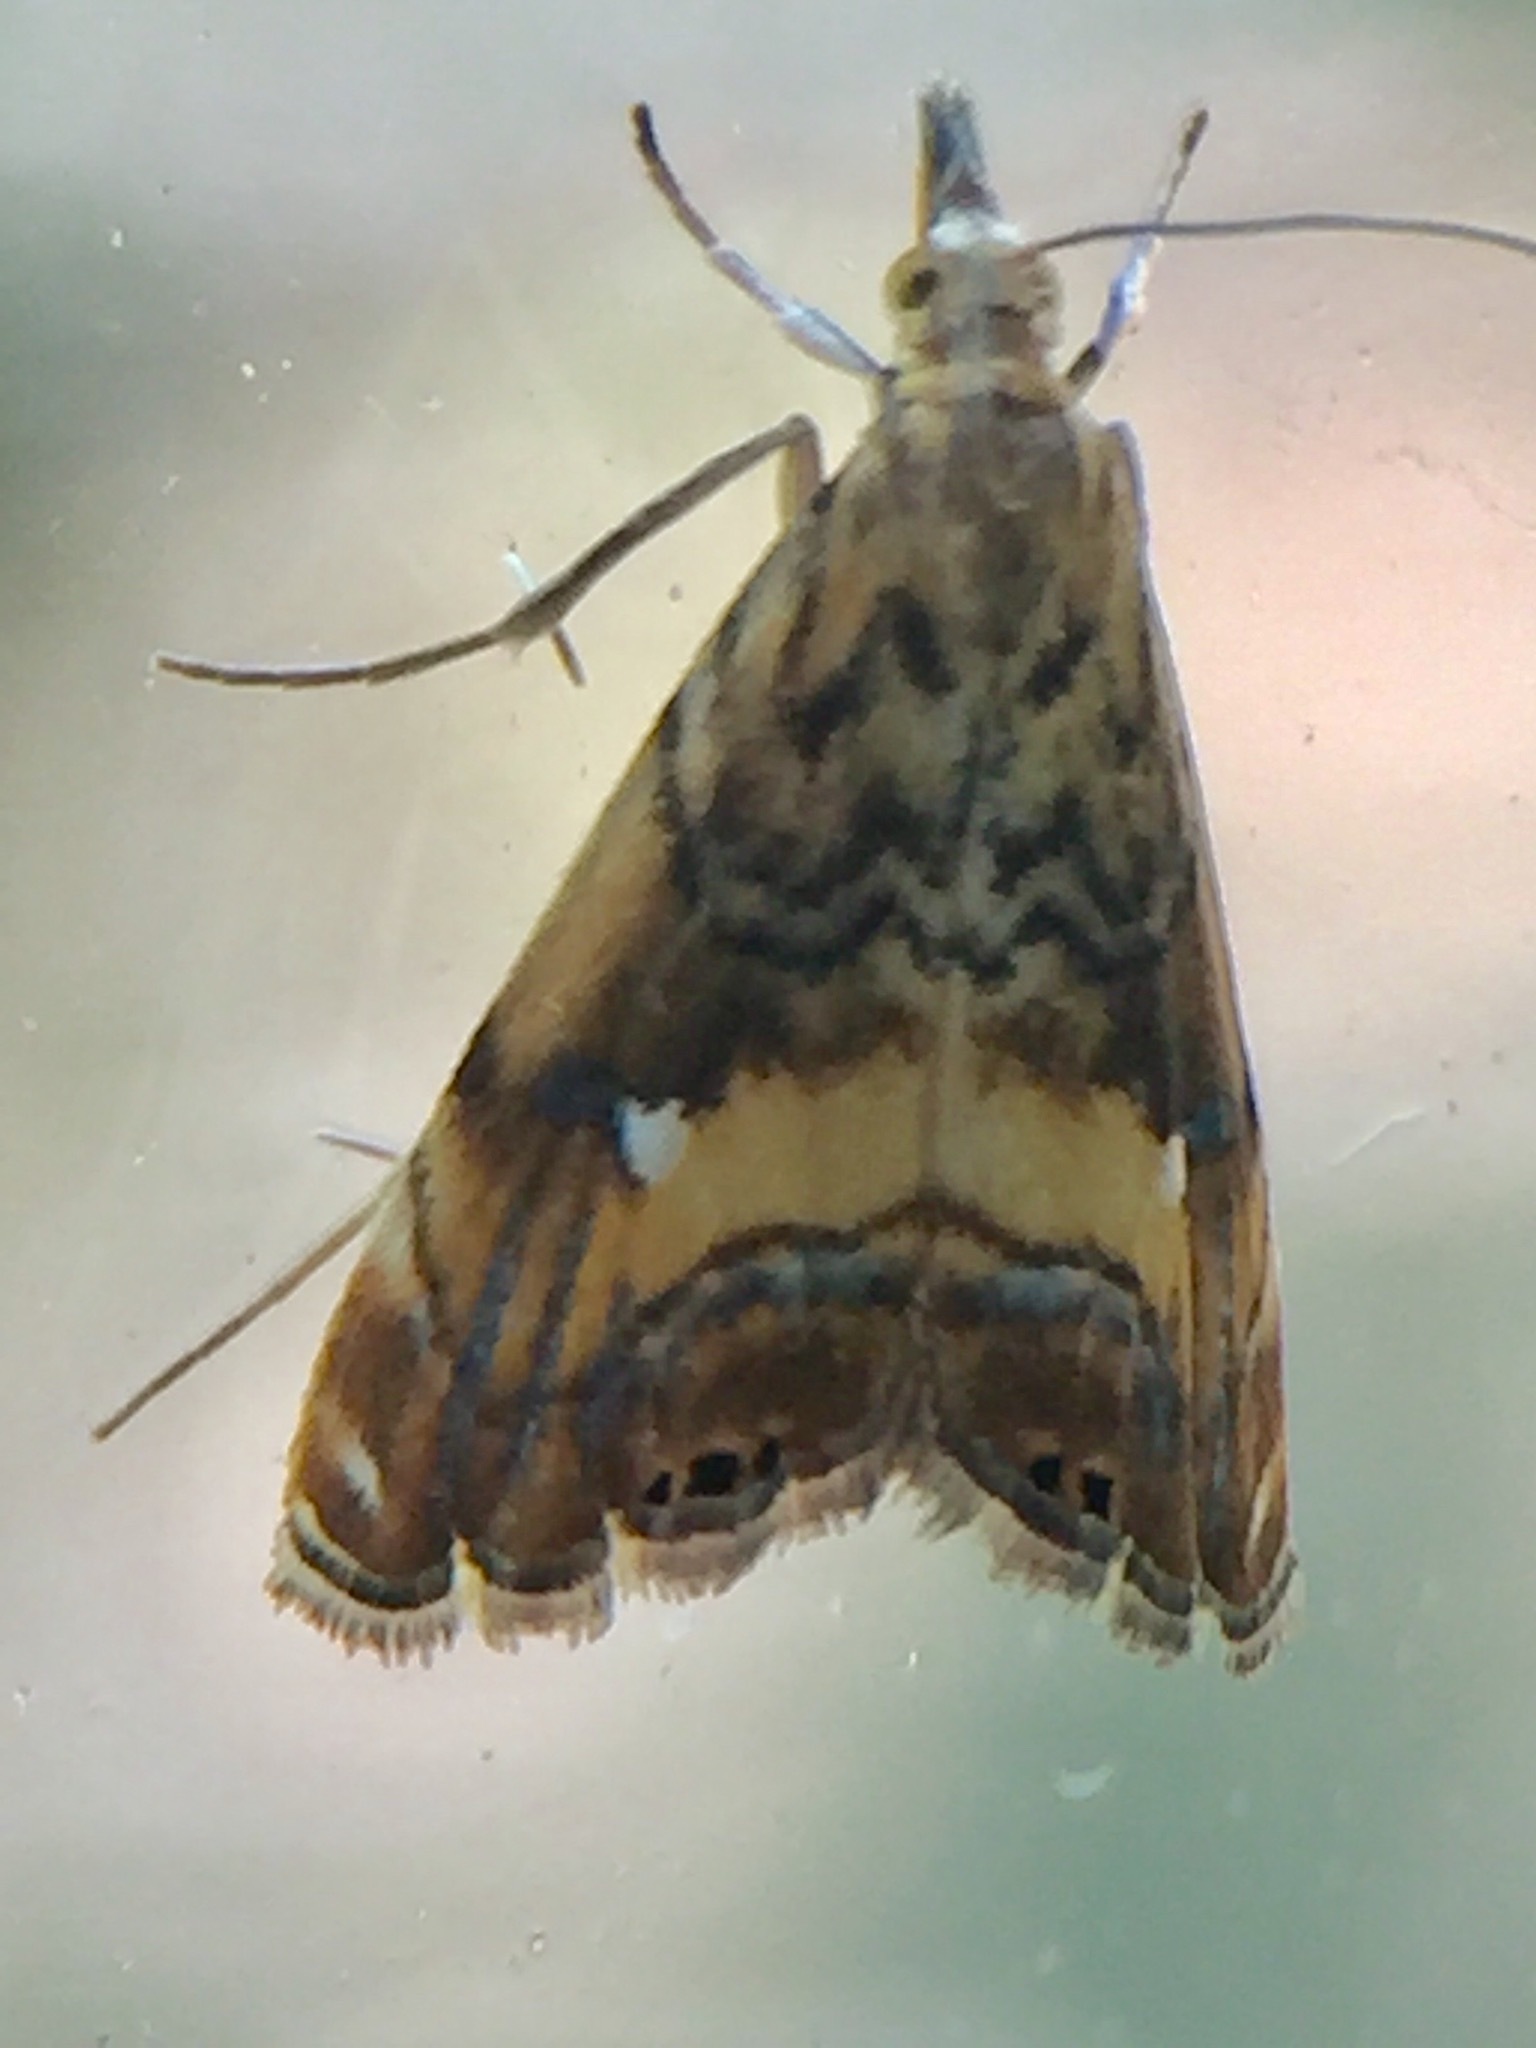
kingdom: Animalia
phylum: Arthropoda
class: Insecta
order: Lepidoptera
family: Crambidae
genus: Glaucocharis
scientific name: Glaucocharis chrysochyta
